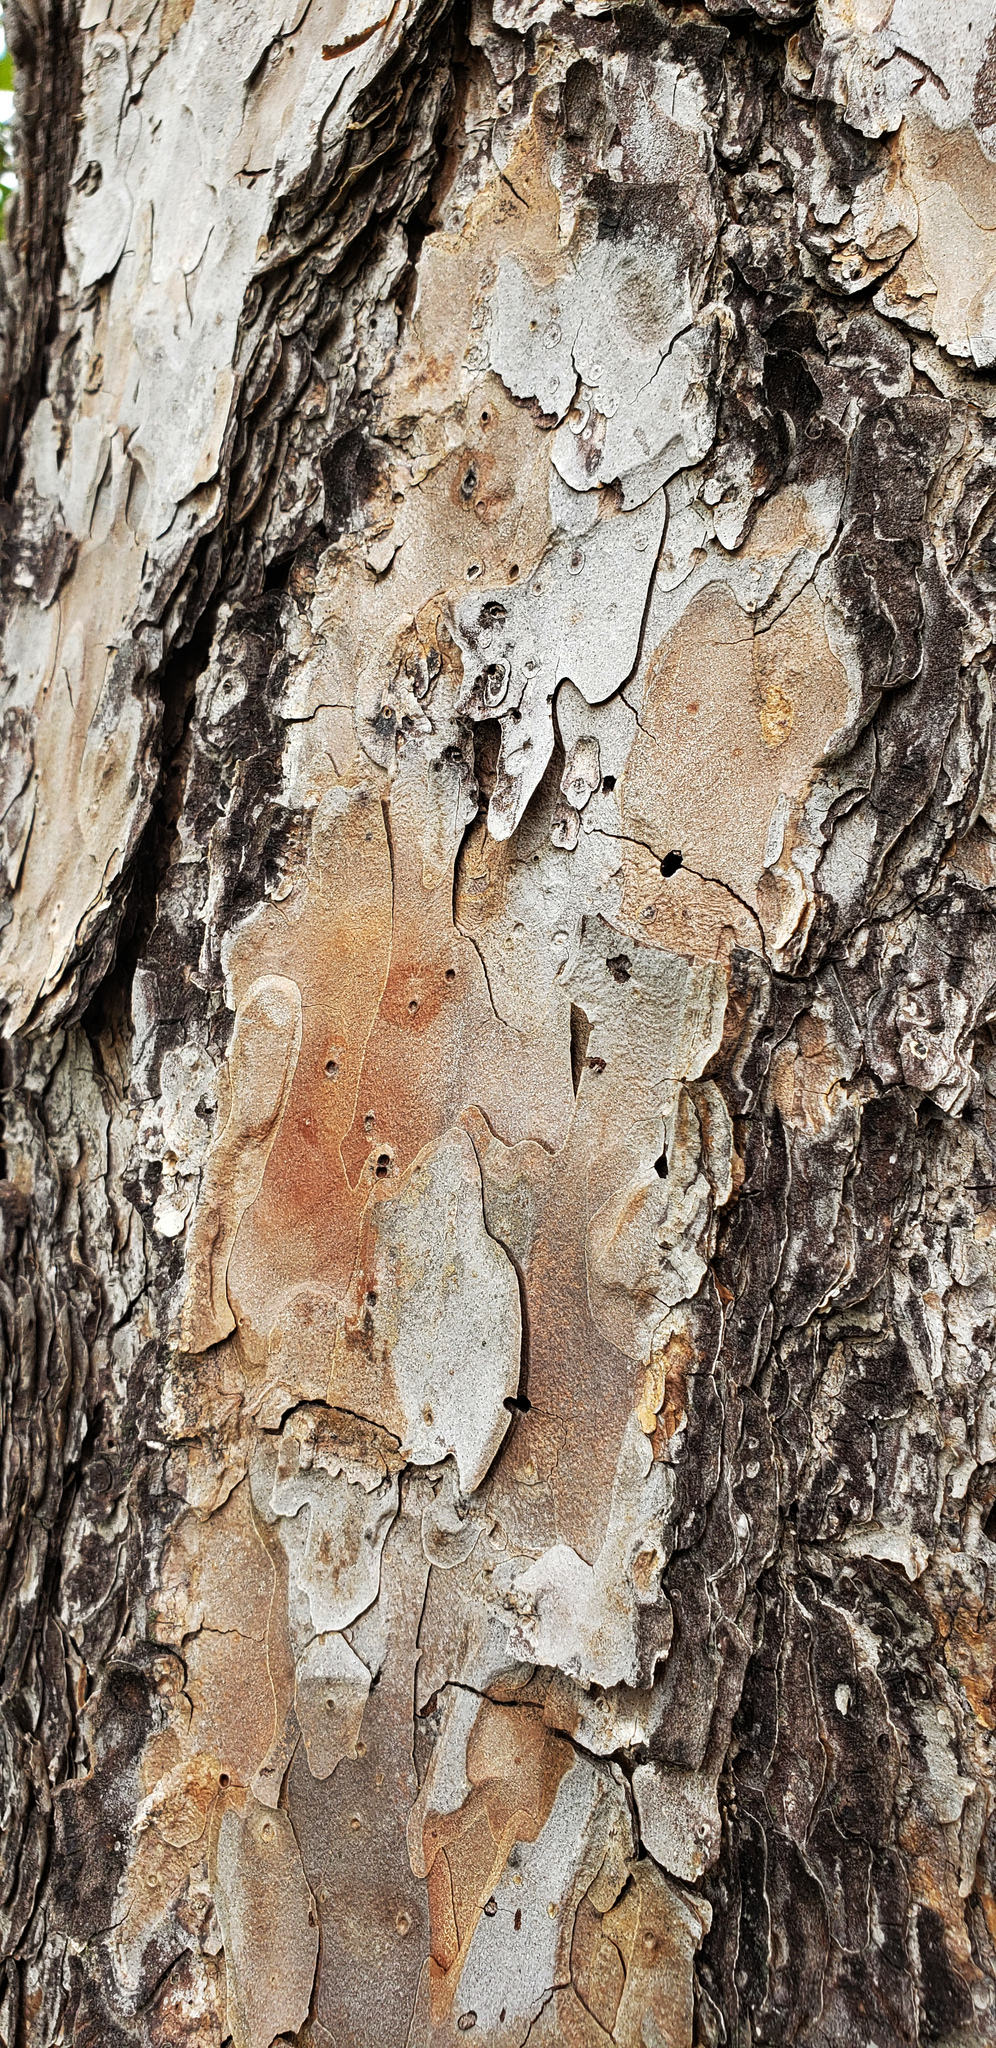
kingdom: Plantae
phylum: Tracheophyta
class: Pinopsida
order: Pinales
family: Pinaceae
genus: Pinus
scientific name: Pinus echinata
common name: Shortleaf pine
